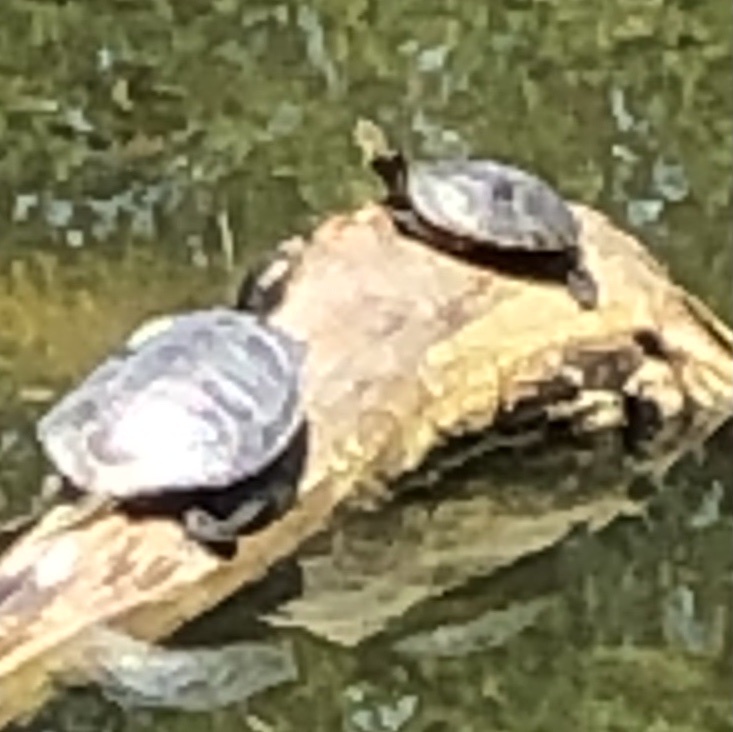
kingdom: Animalia
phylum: Chordata
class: Testudines
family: Emydidae
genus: Trachemys
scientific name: Trachemys scripta
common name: Slider
